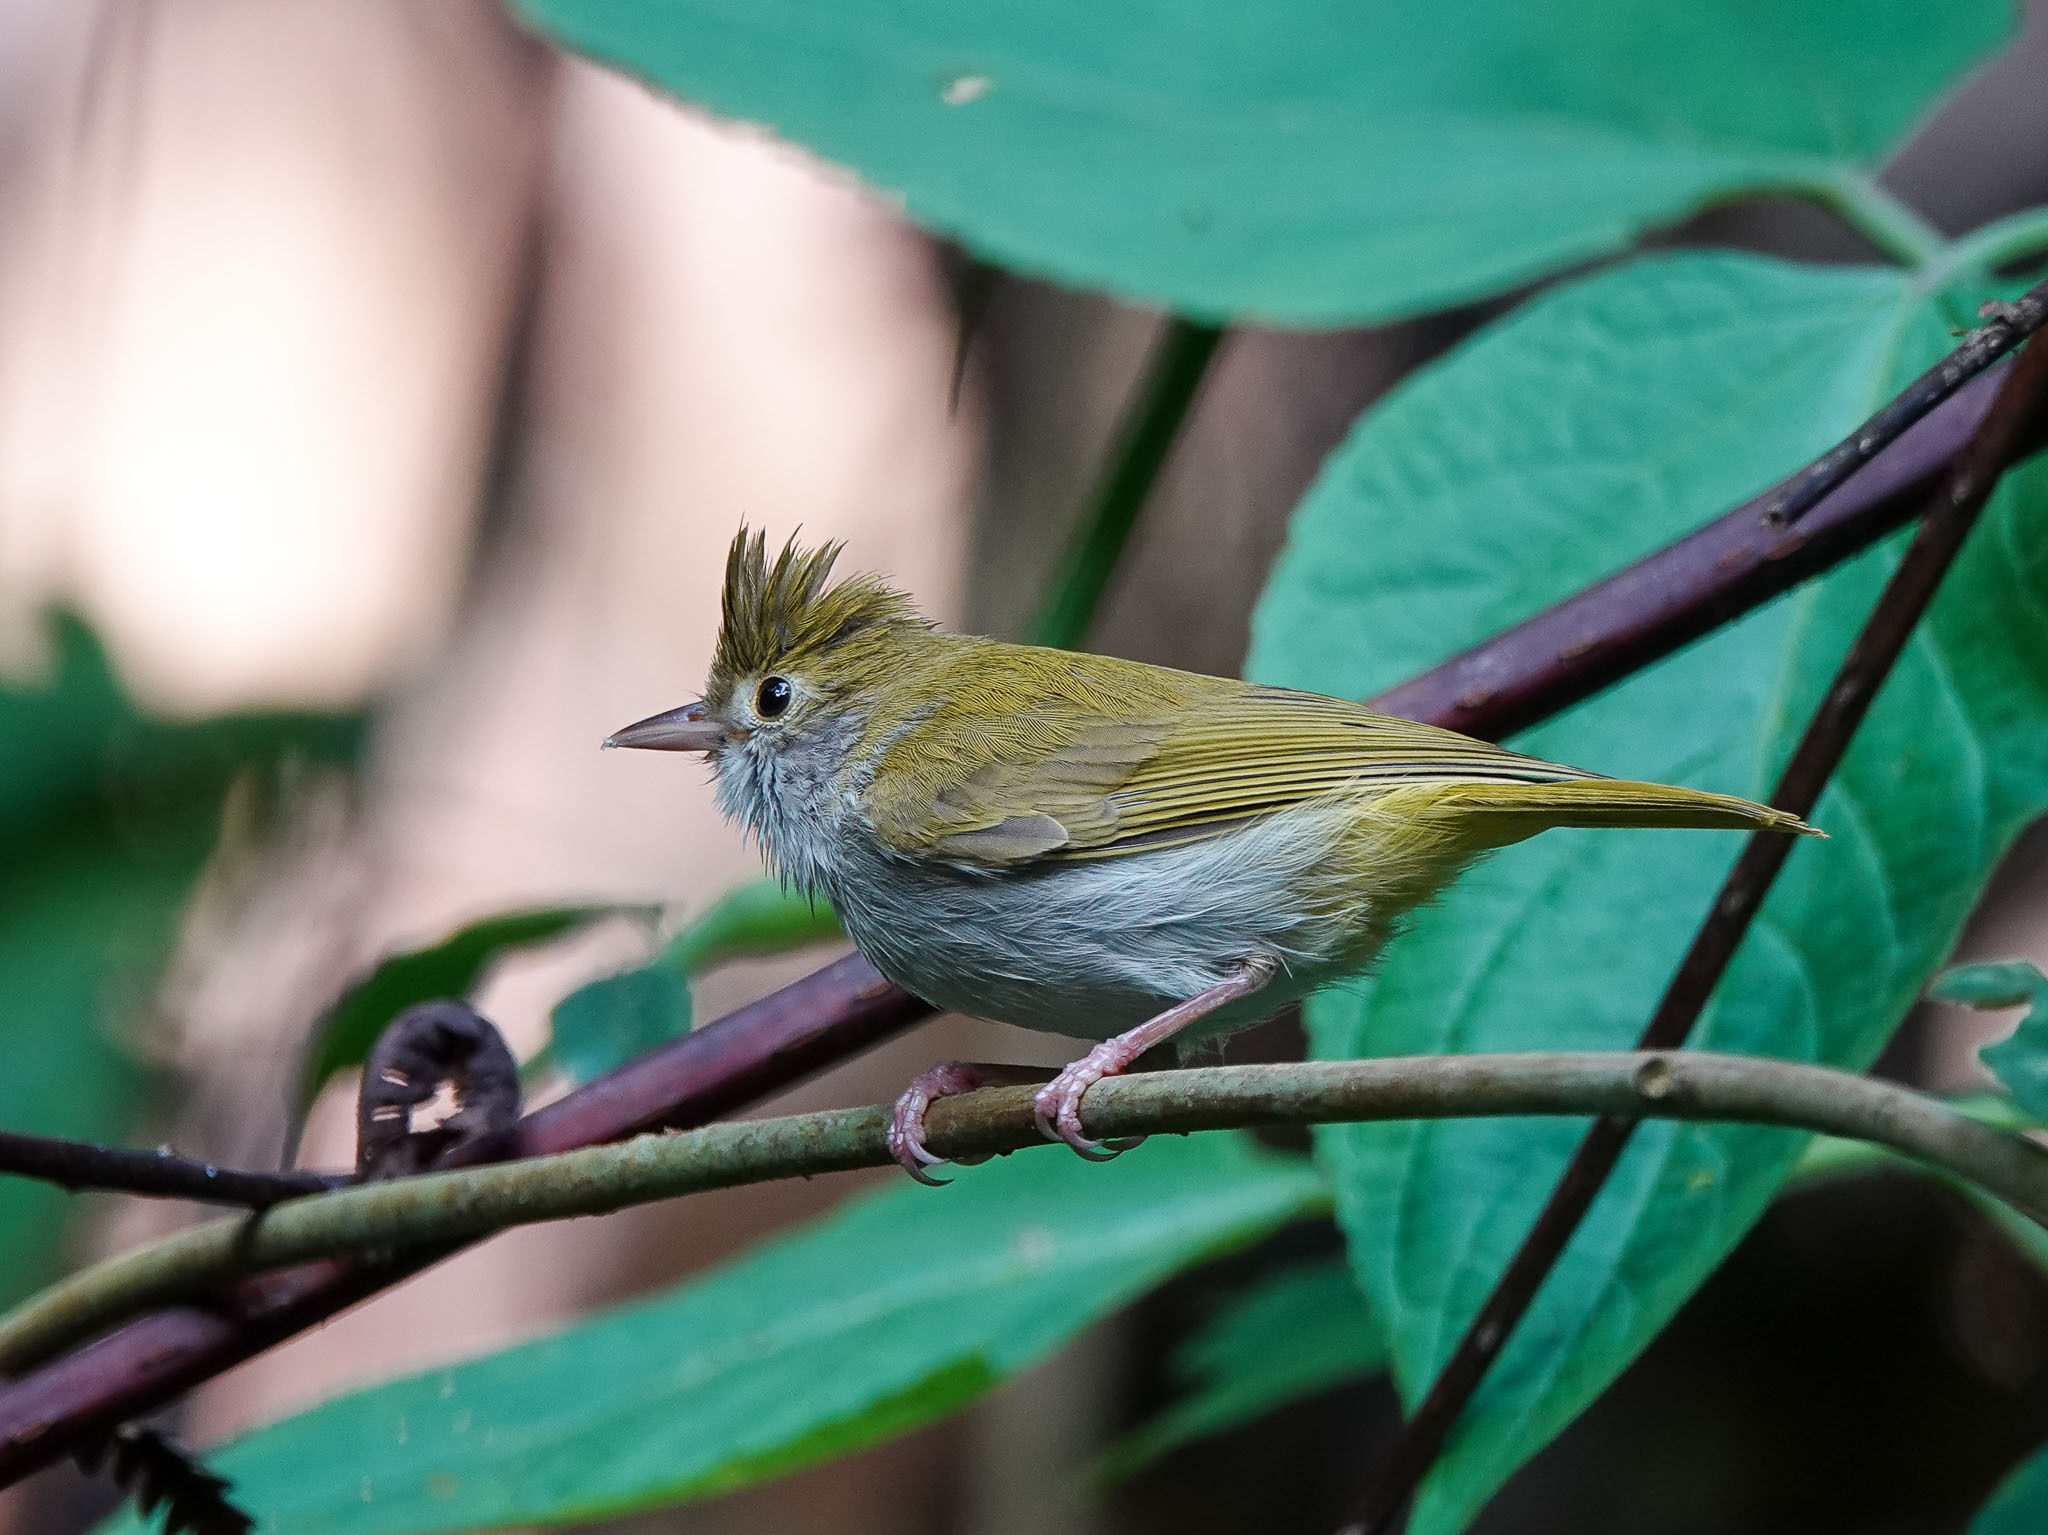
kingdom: Animalia
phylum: Chordata
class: Aves
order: Passeriformes
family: Vireonidae
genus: Erpornis
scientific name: Erpornis zantholeuca
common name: White-bellied erpornis
